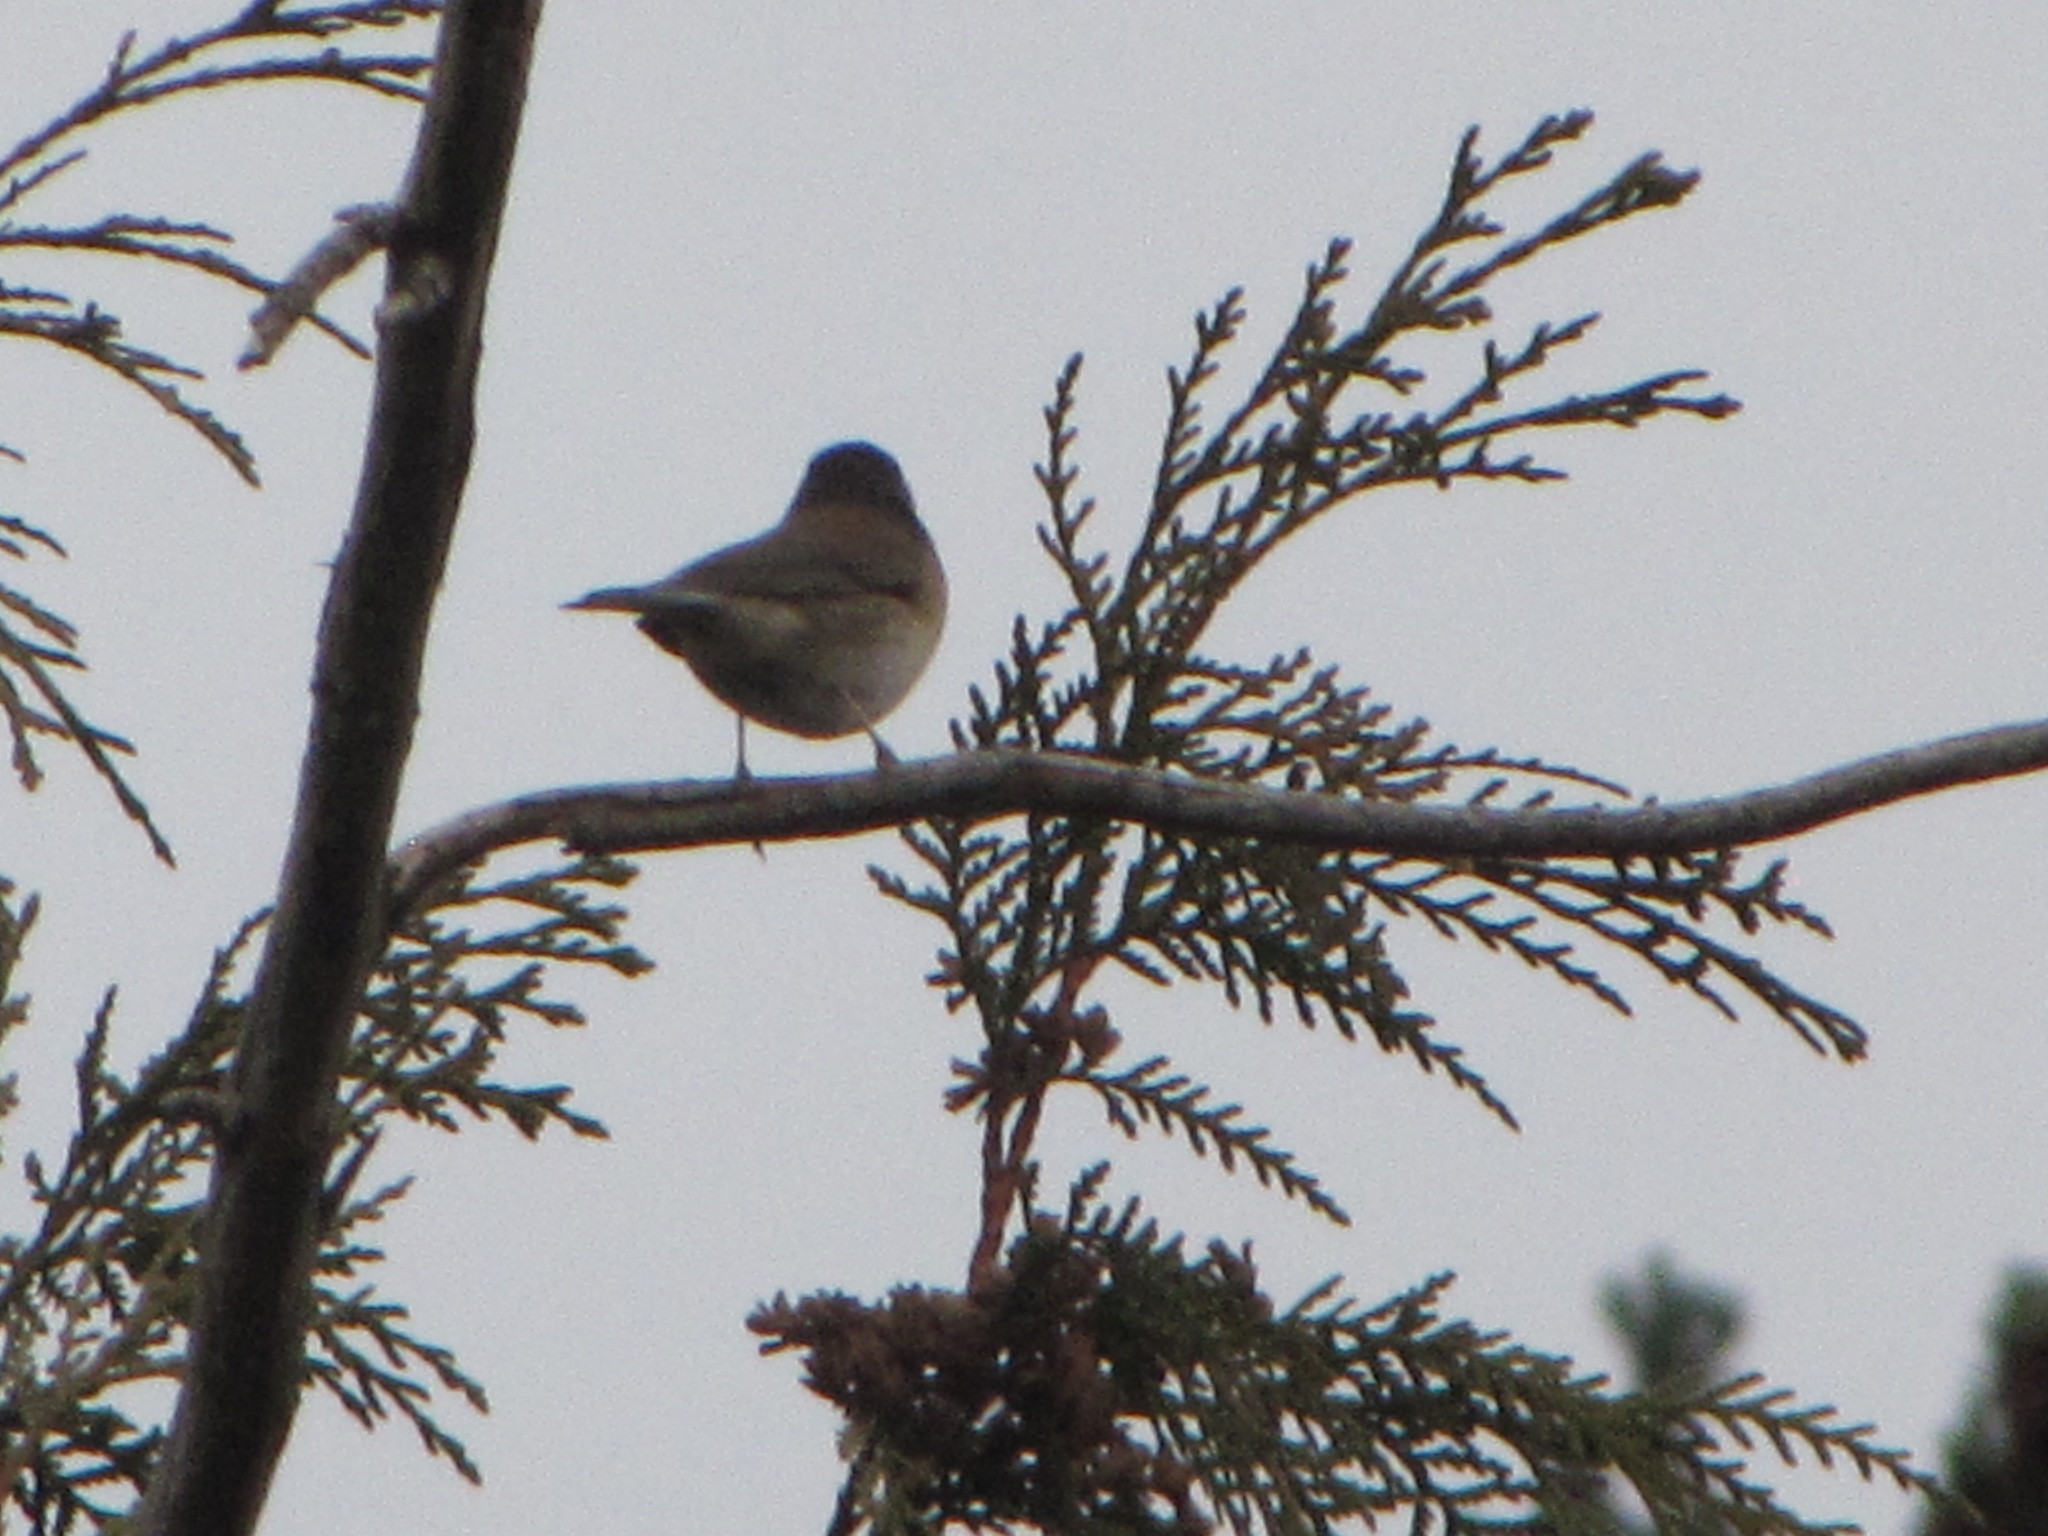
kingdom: Animalia
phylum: Chordata
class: Aves
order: Passeriformes
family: Passerellidae
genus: Junco
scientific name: Junco hyemalis
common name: Dark-eyed junco
